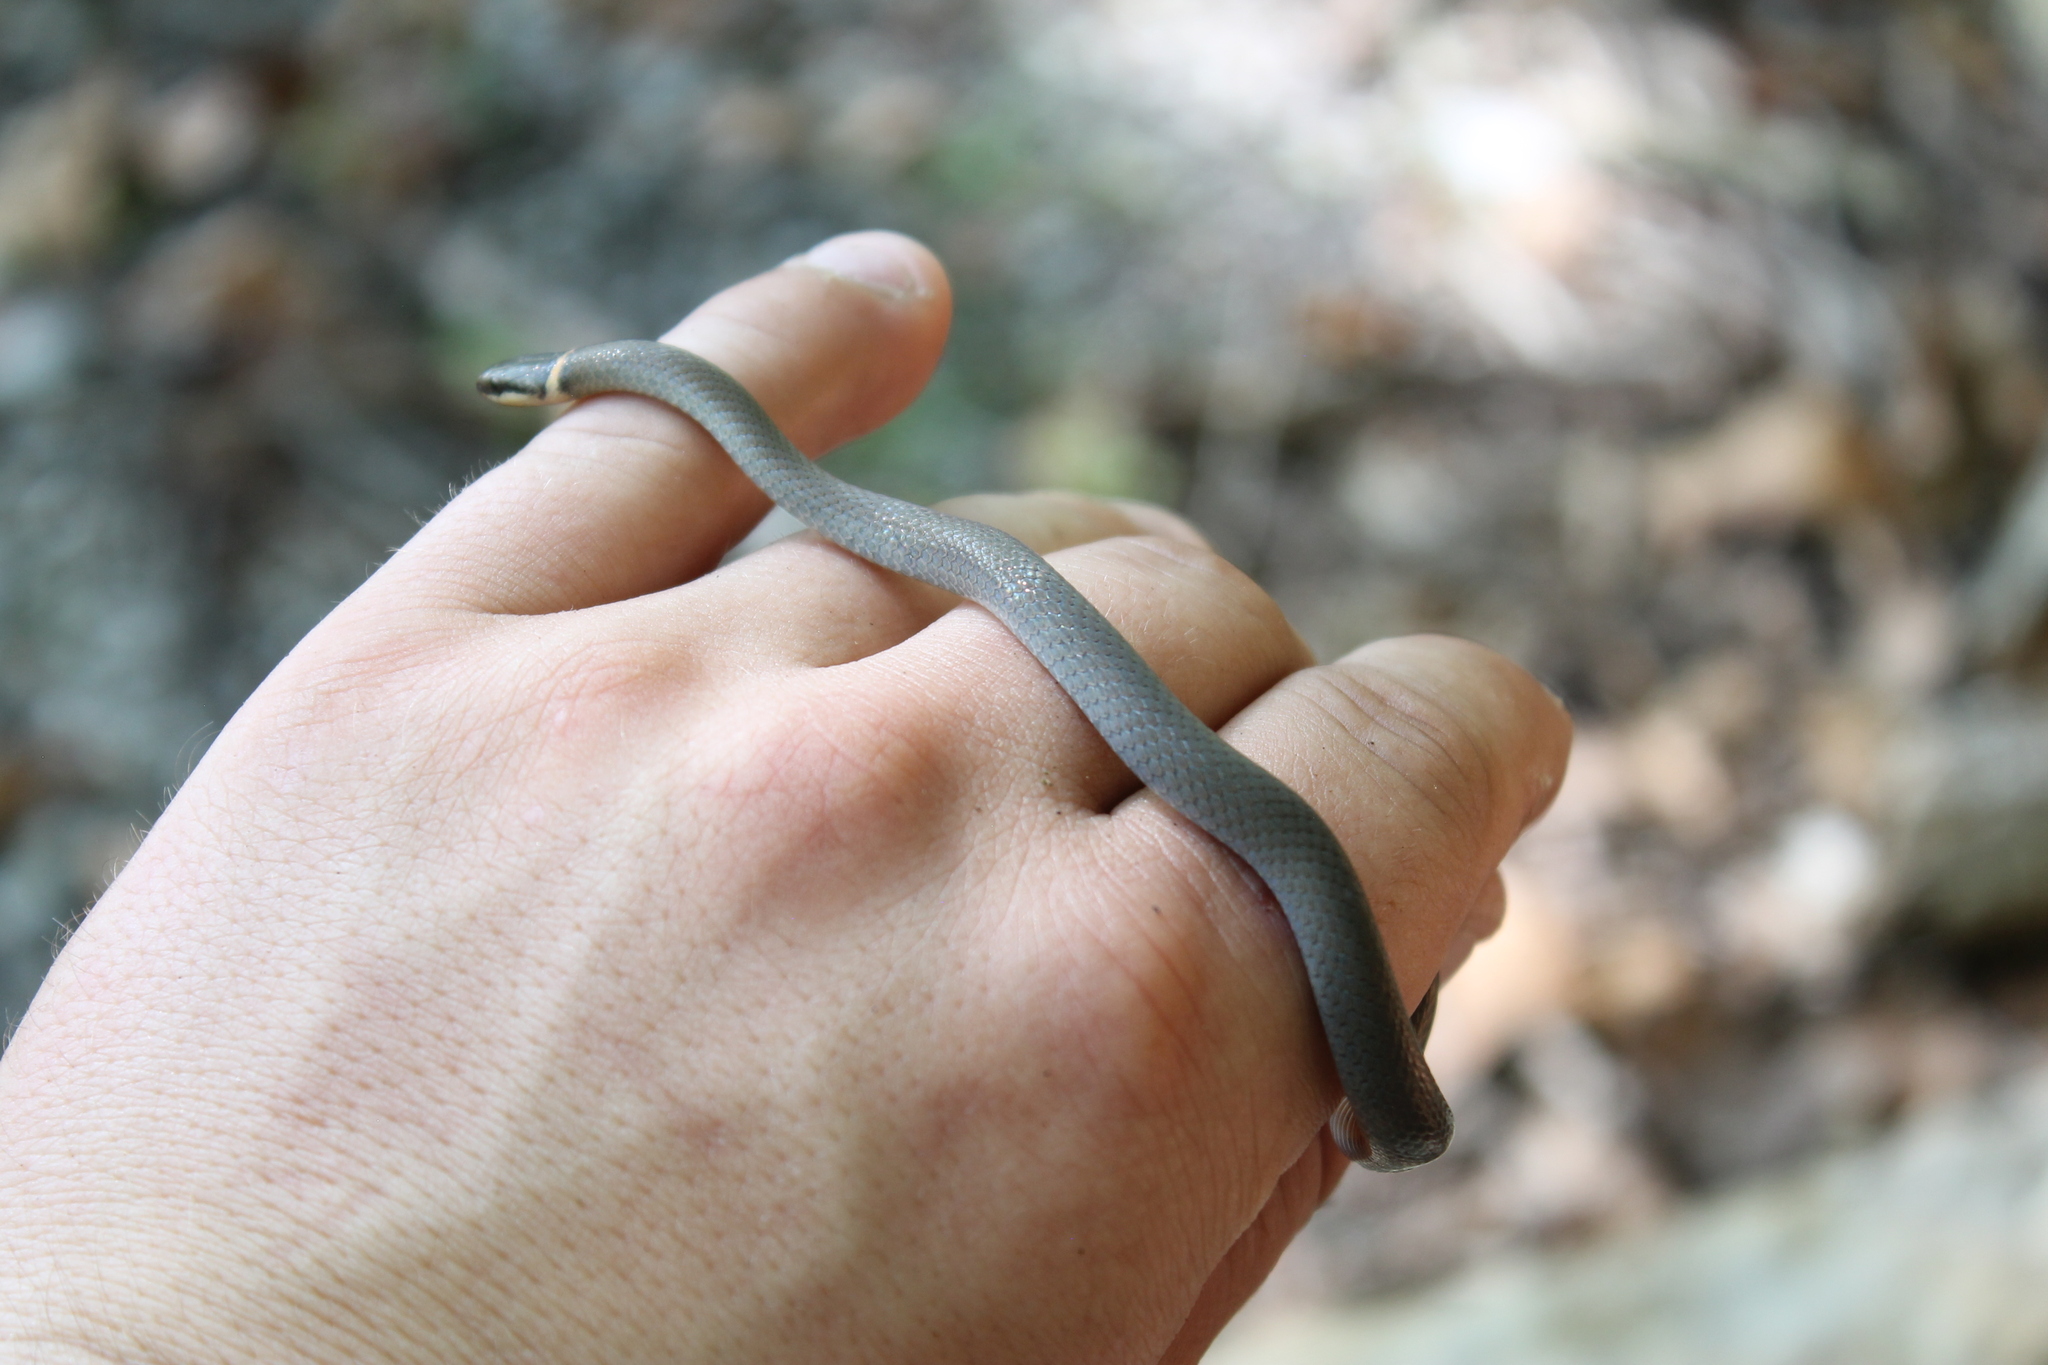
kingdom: Animalia
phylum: Chordata
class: Squamata
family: Colubridae
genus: Diadophis
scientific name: Diadophis punctatus
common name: Ringneck snake
